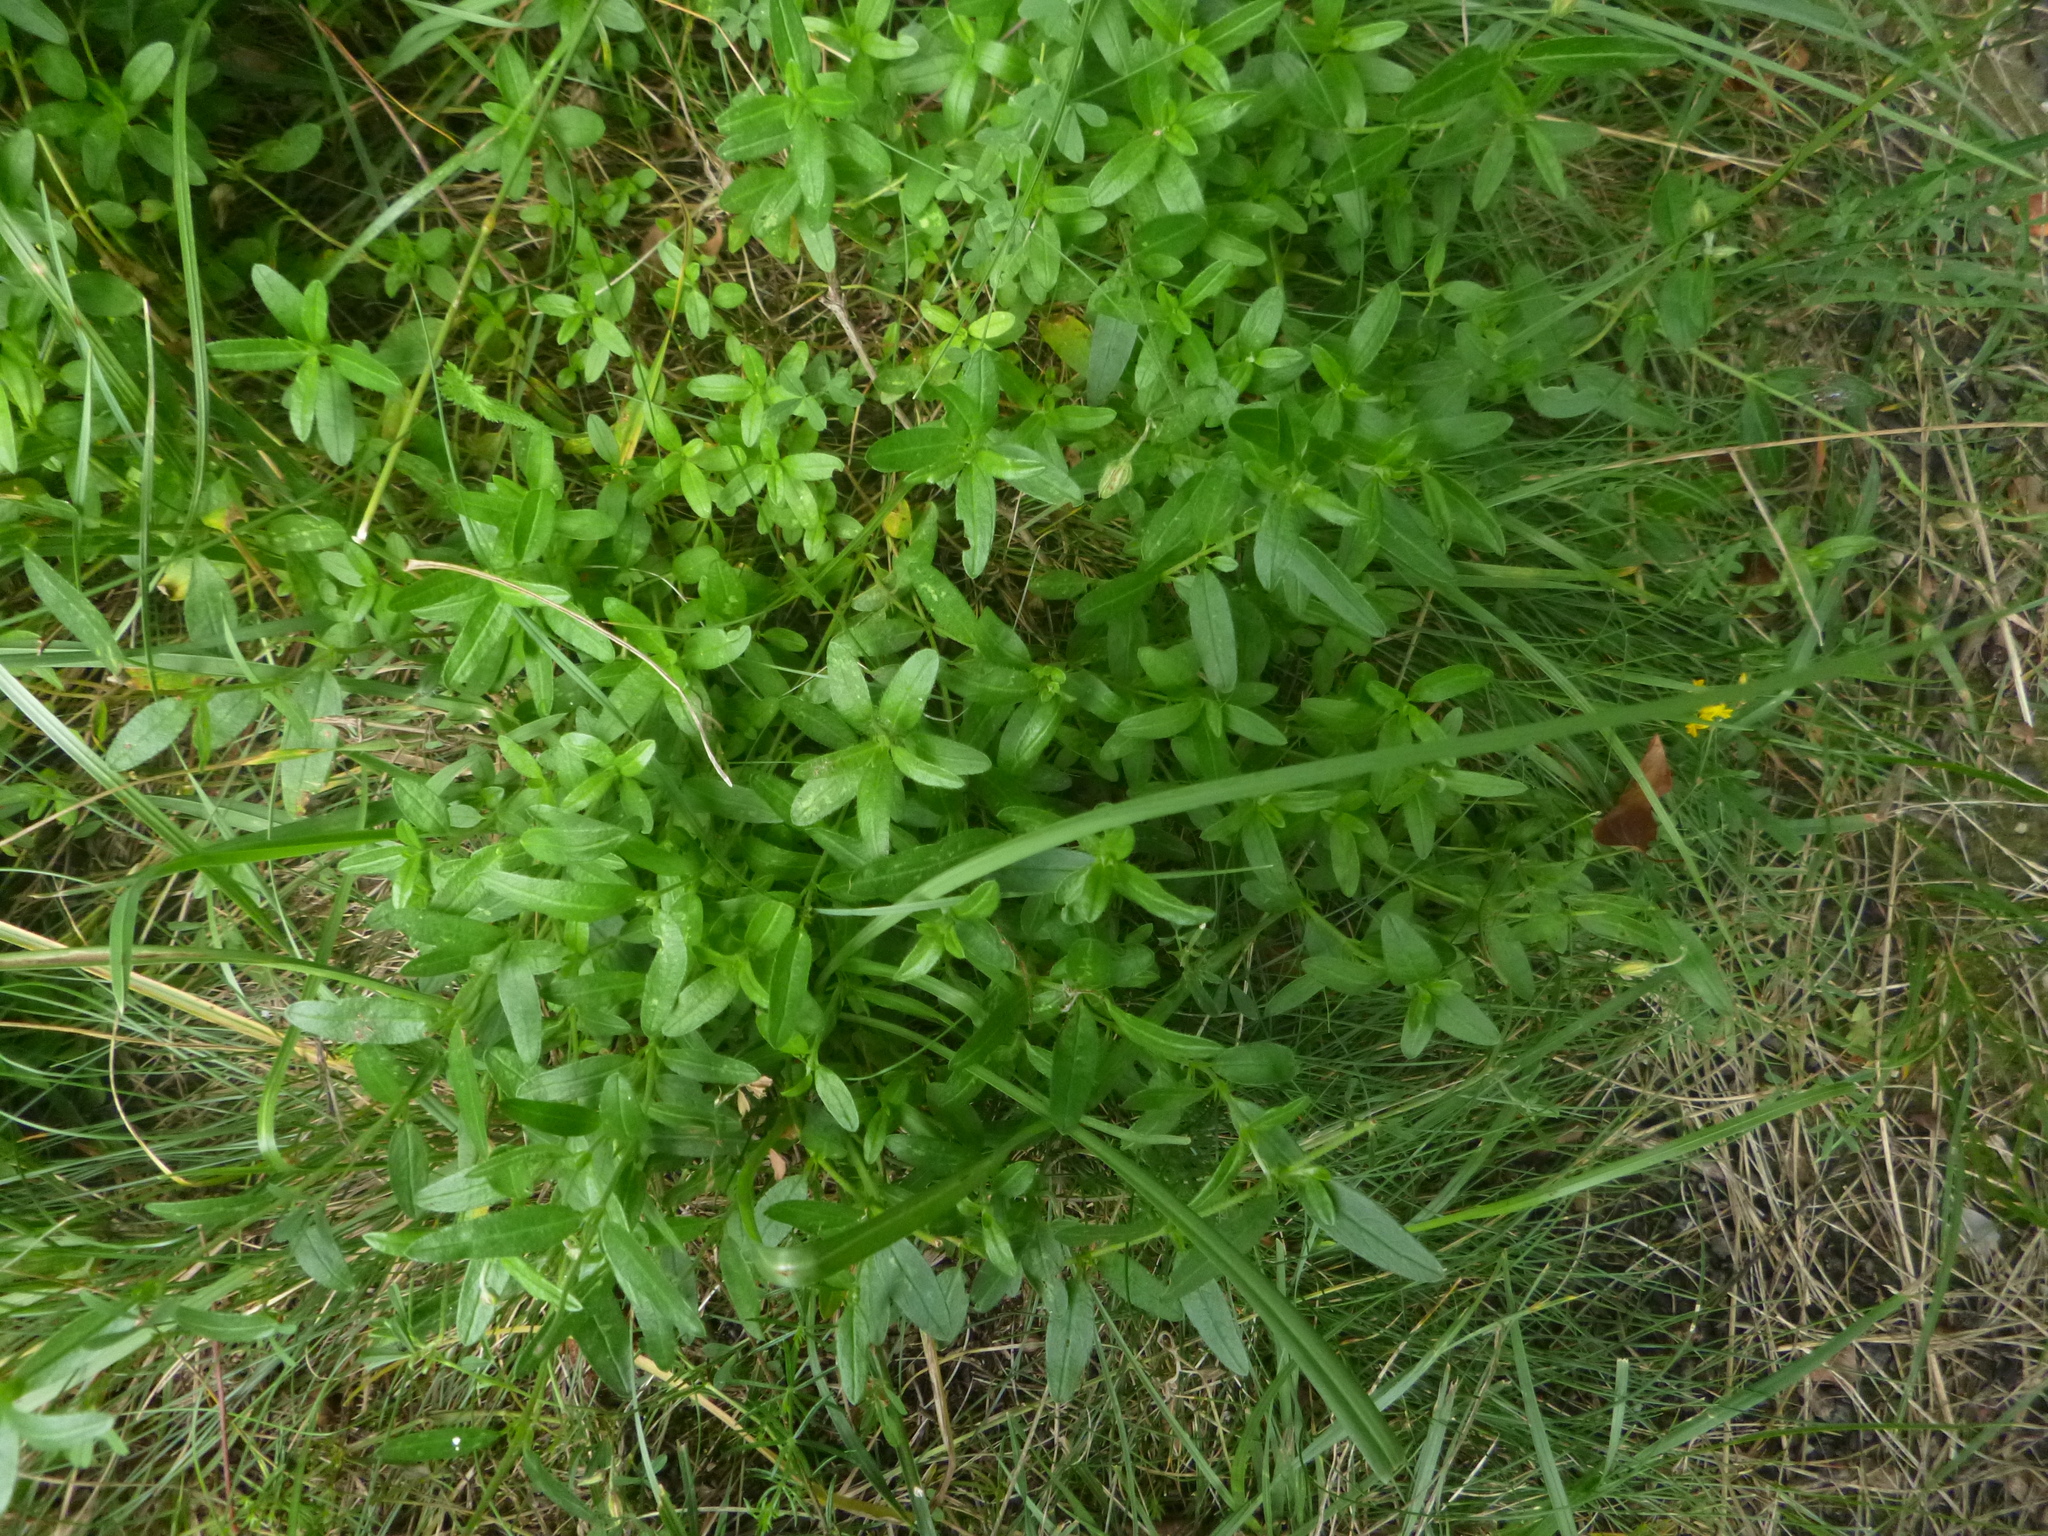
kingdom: Plantae
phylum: Tracheophyta
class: Magnoliopsida
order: Malvales
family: Cistaceae
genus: Helianthemum
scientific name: Helianthemum nummularium
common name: Common rock-rose
